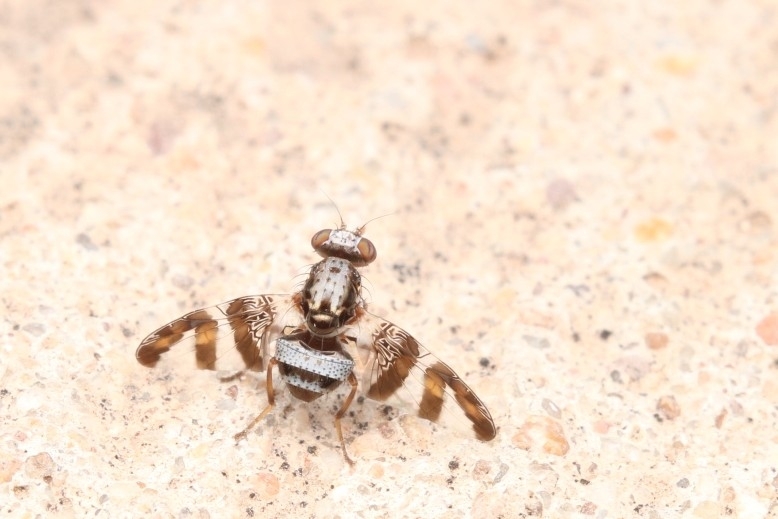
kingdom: Animalia
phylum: Arthropoda
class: Insecta
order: Diptera
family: Ulidiidae
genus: Dyscrasis
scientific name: Dyscrasis hendeli
